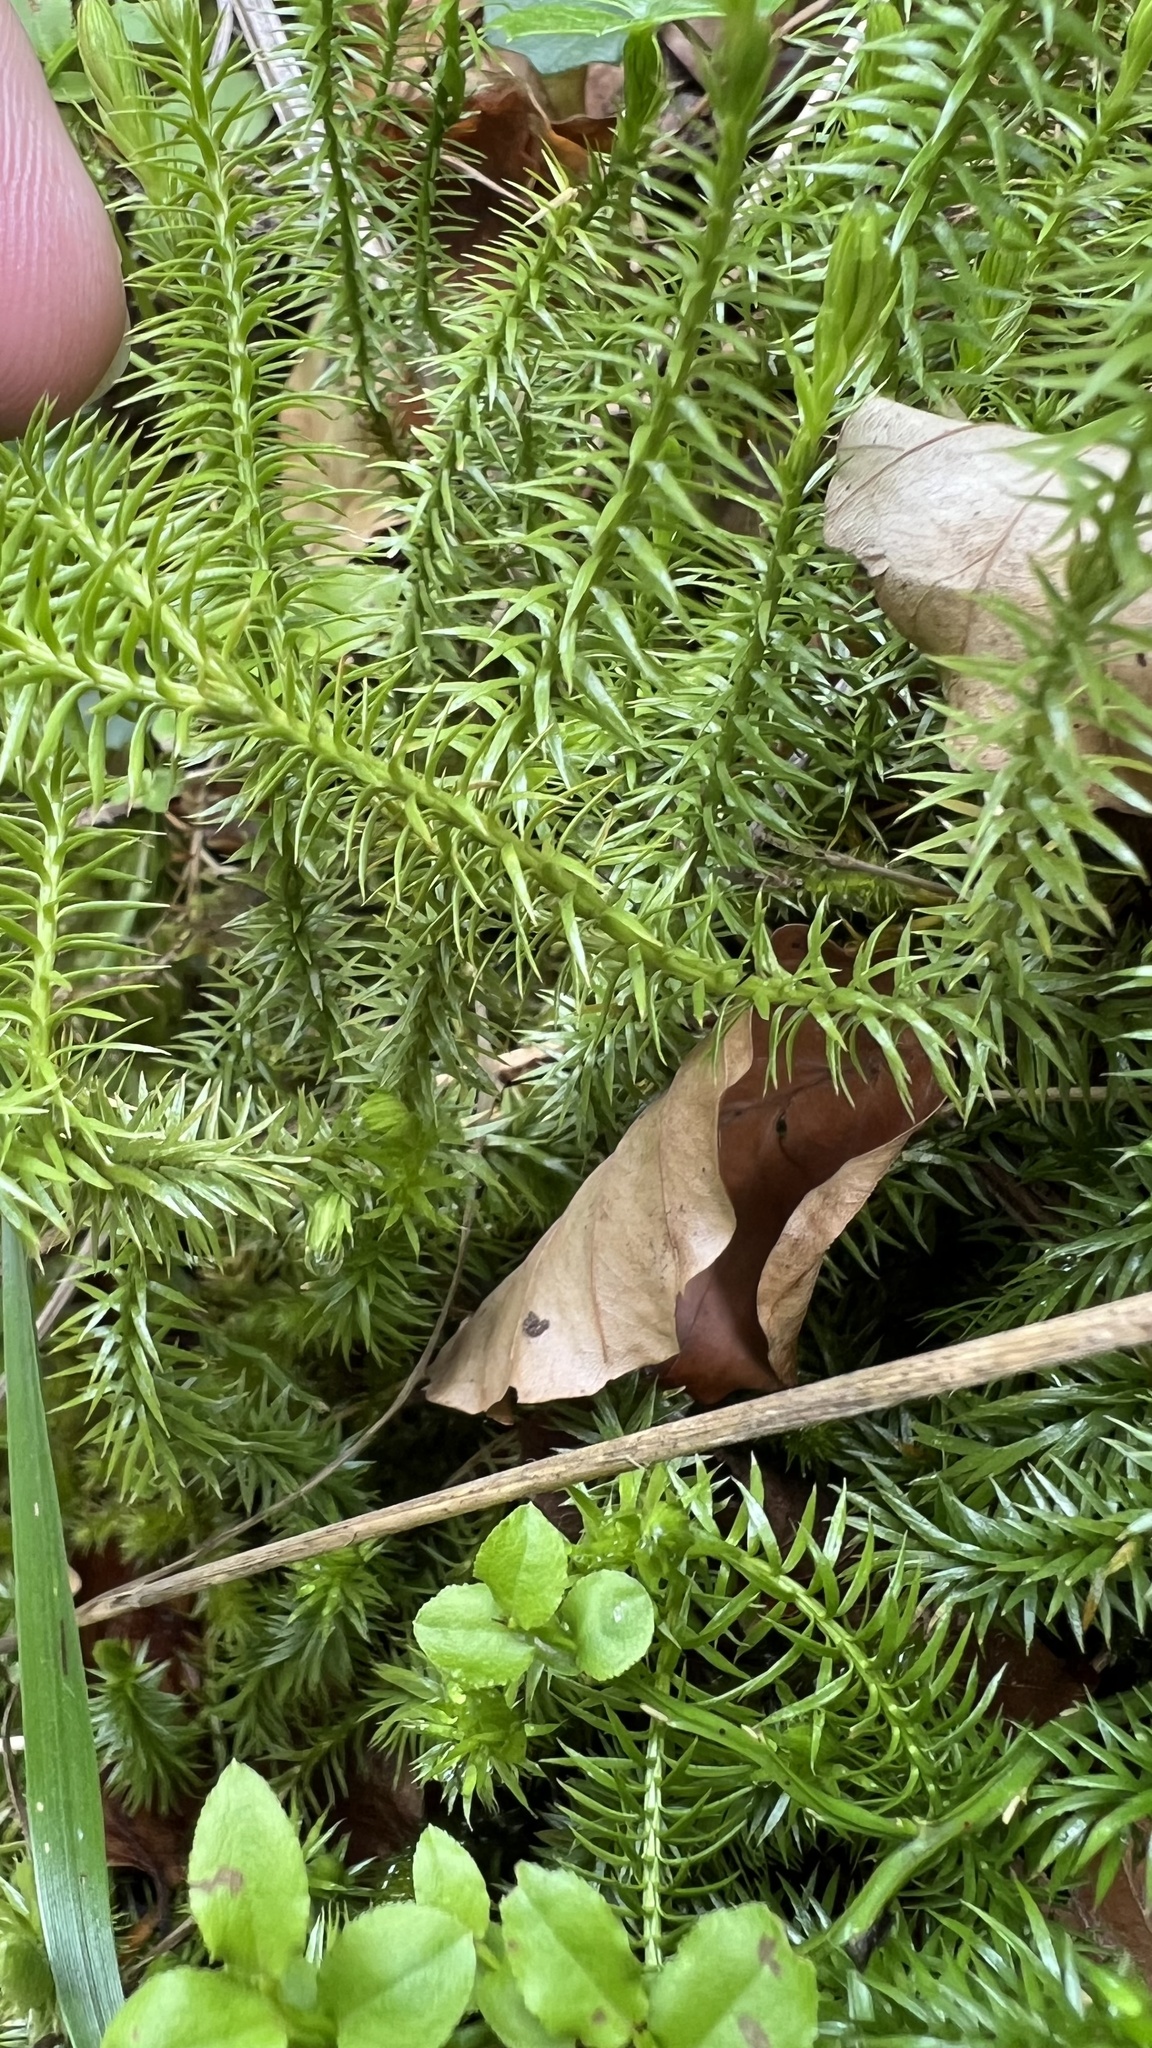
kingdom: Plantae
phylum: Tracheophyta
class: Lycopodiopsida
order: Lycopodiales
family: Lycopodiaceae
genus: Huperzia
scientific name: Huperzia selago
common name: Northern firmoss
